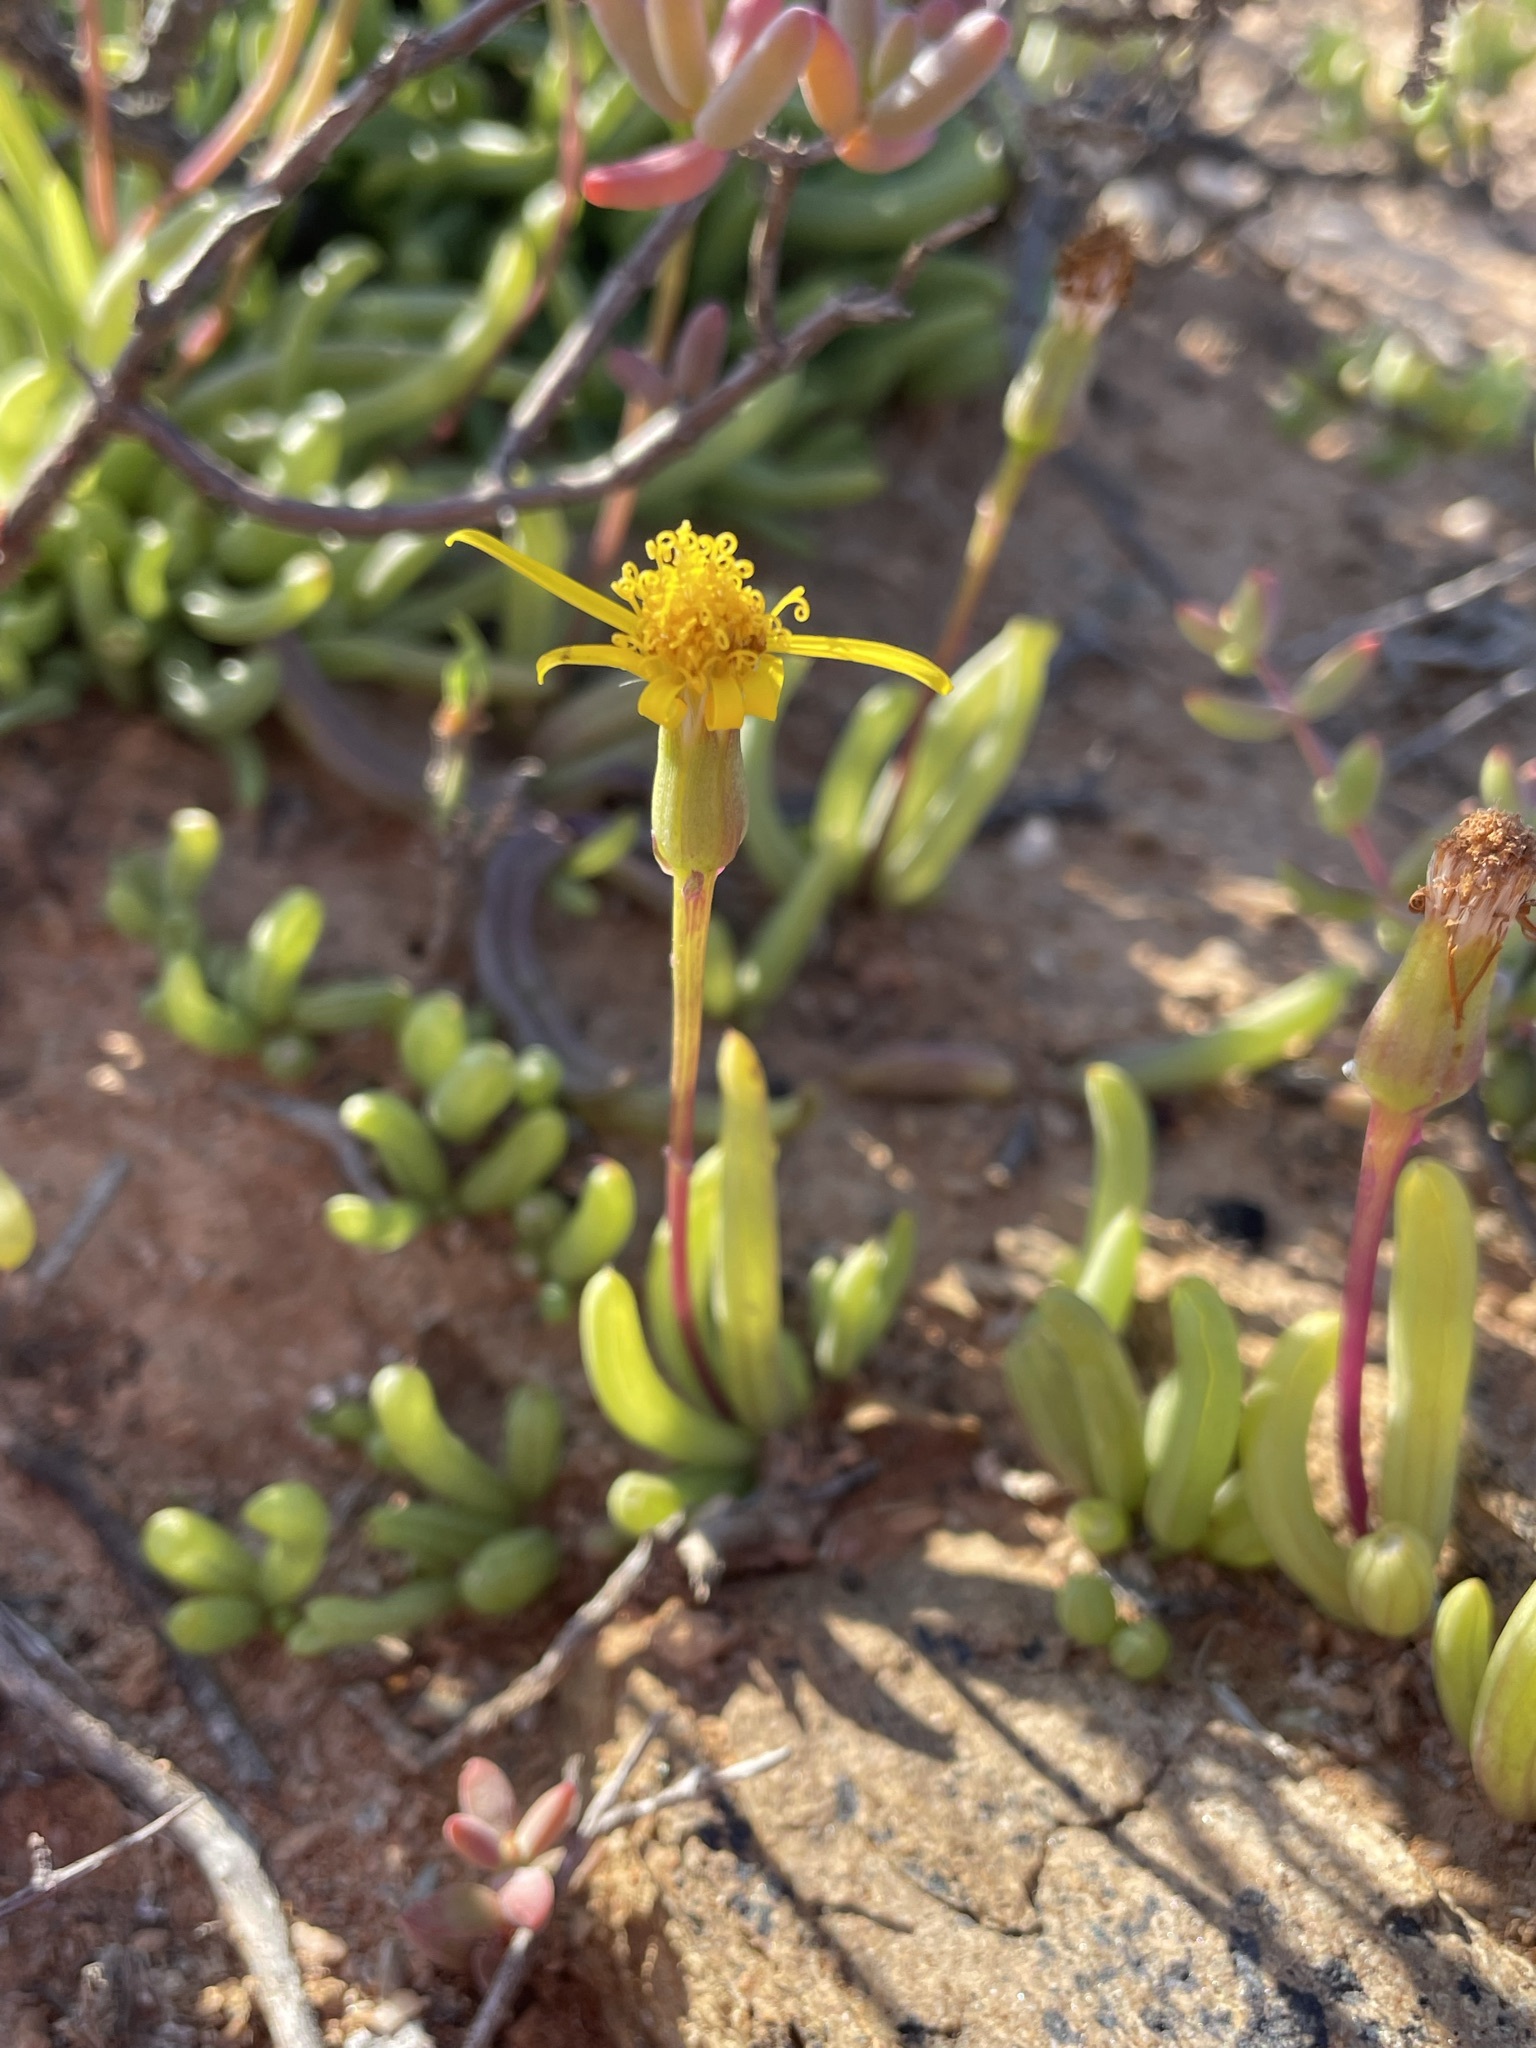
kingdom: Plantae
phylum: Tracheophyta
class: Magnoliopsida
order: Asterales
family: Asteraceae
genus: Senecio
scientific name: Senecio alooides
